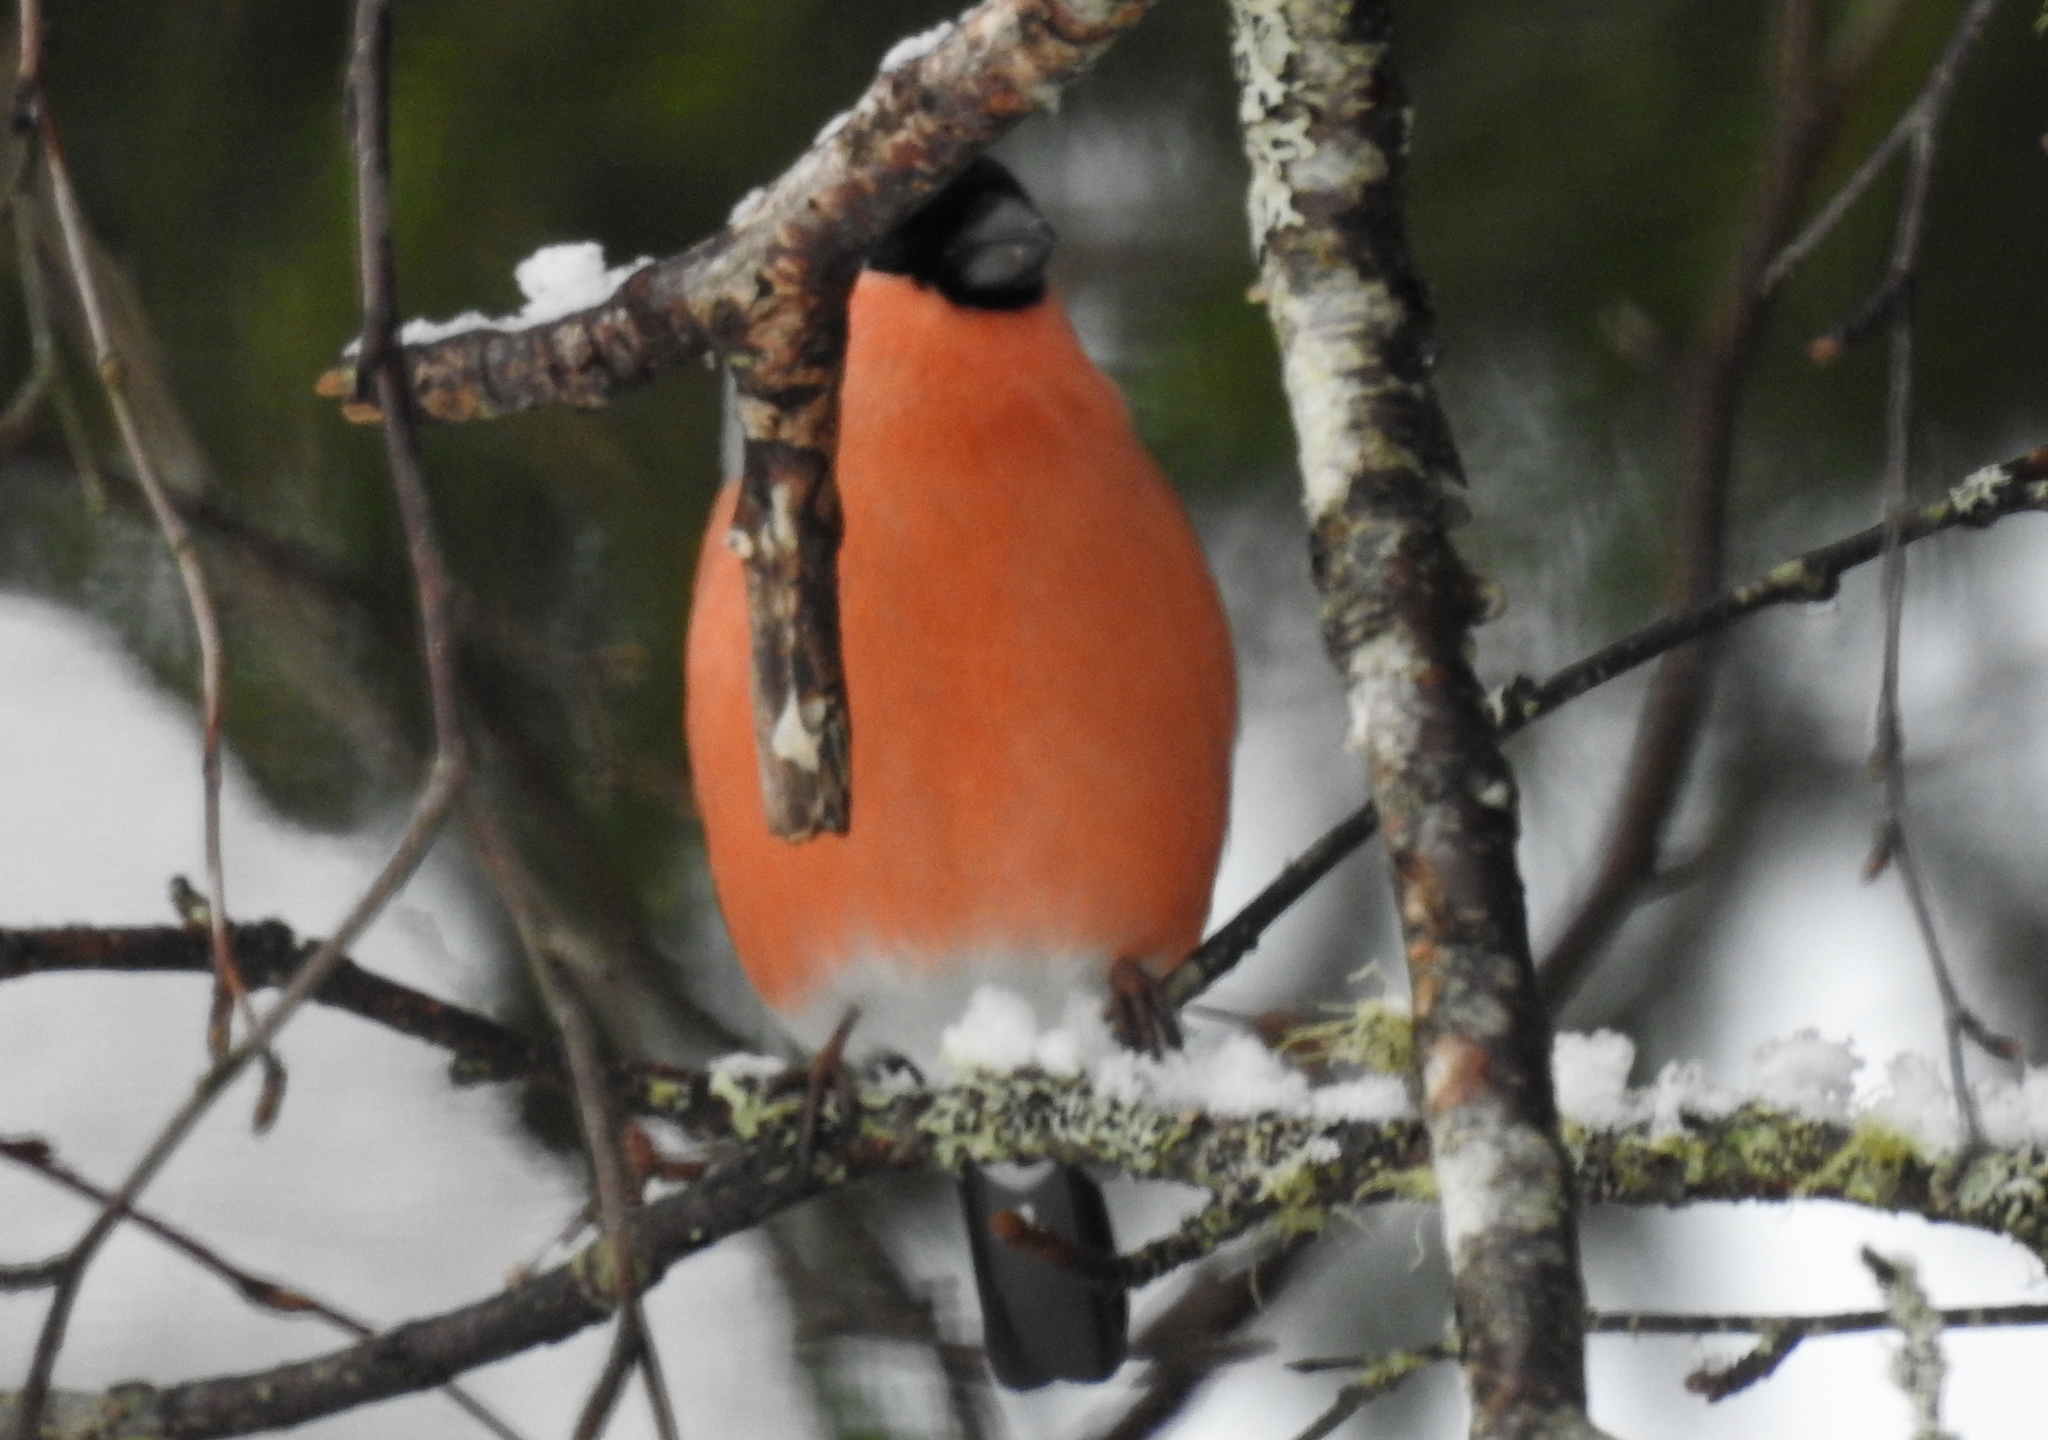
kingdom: Animalia
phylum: Chordata
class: Aves
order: Passeriformes
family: Fringillidae
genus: Pyrrhula
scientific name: Pyrrhula pyrrhula
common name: Eurasian bullfinch
